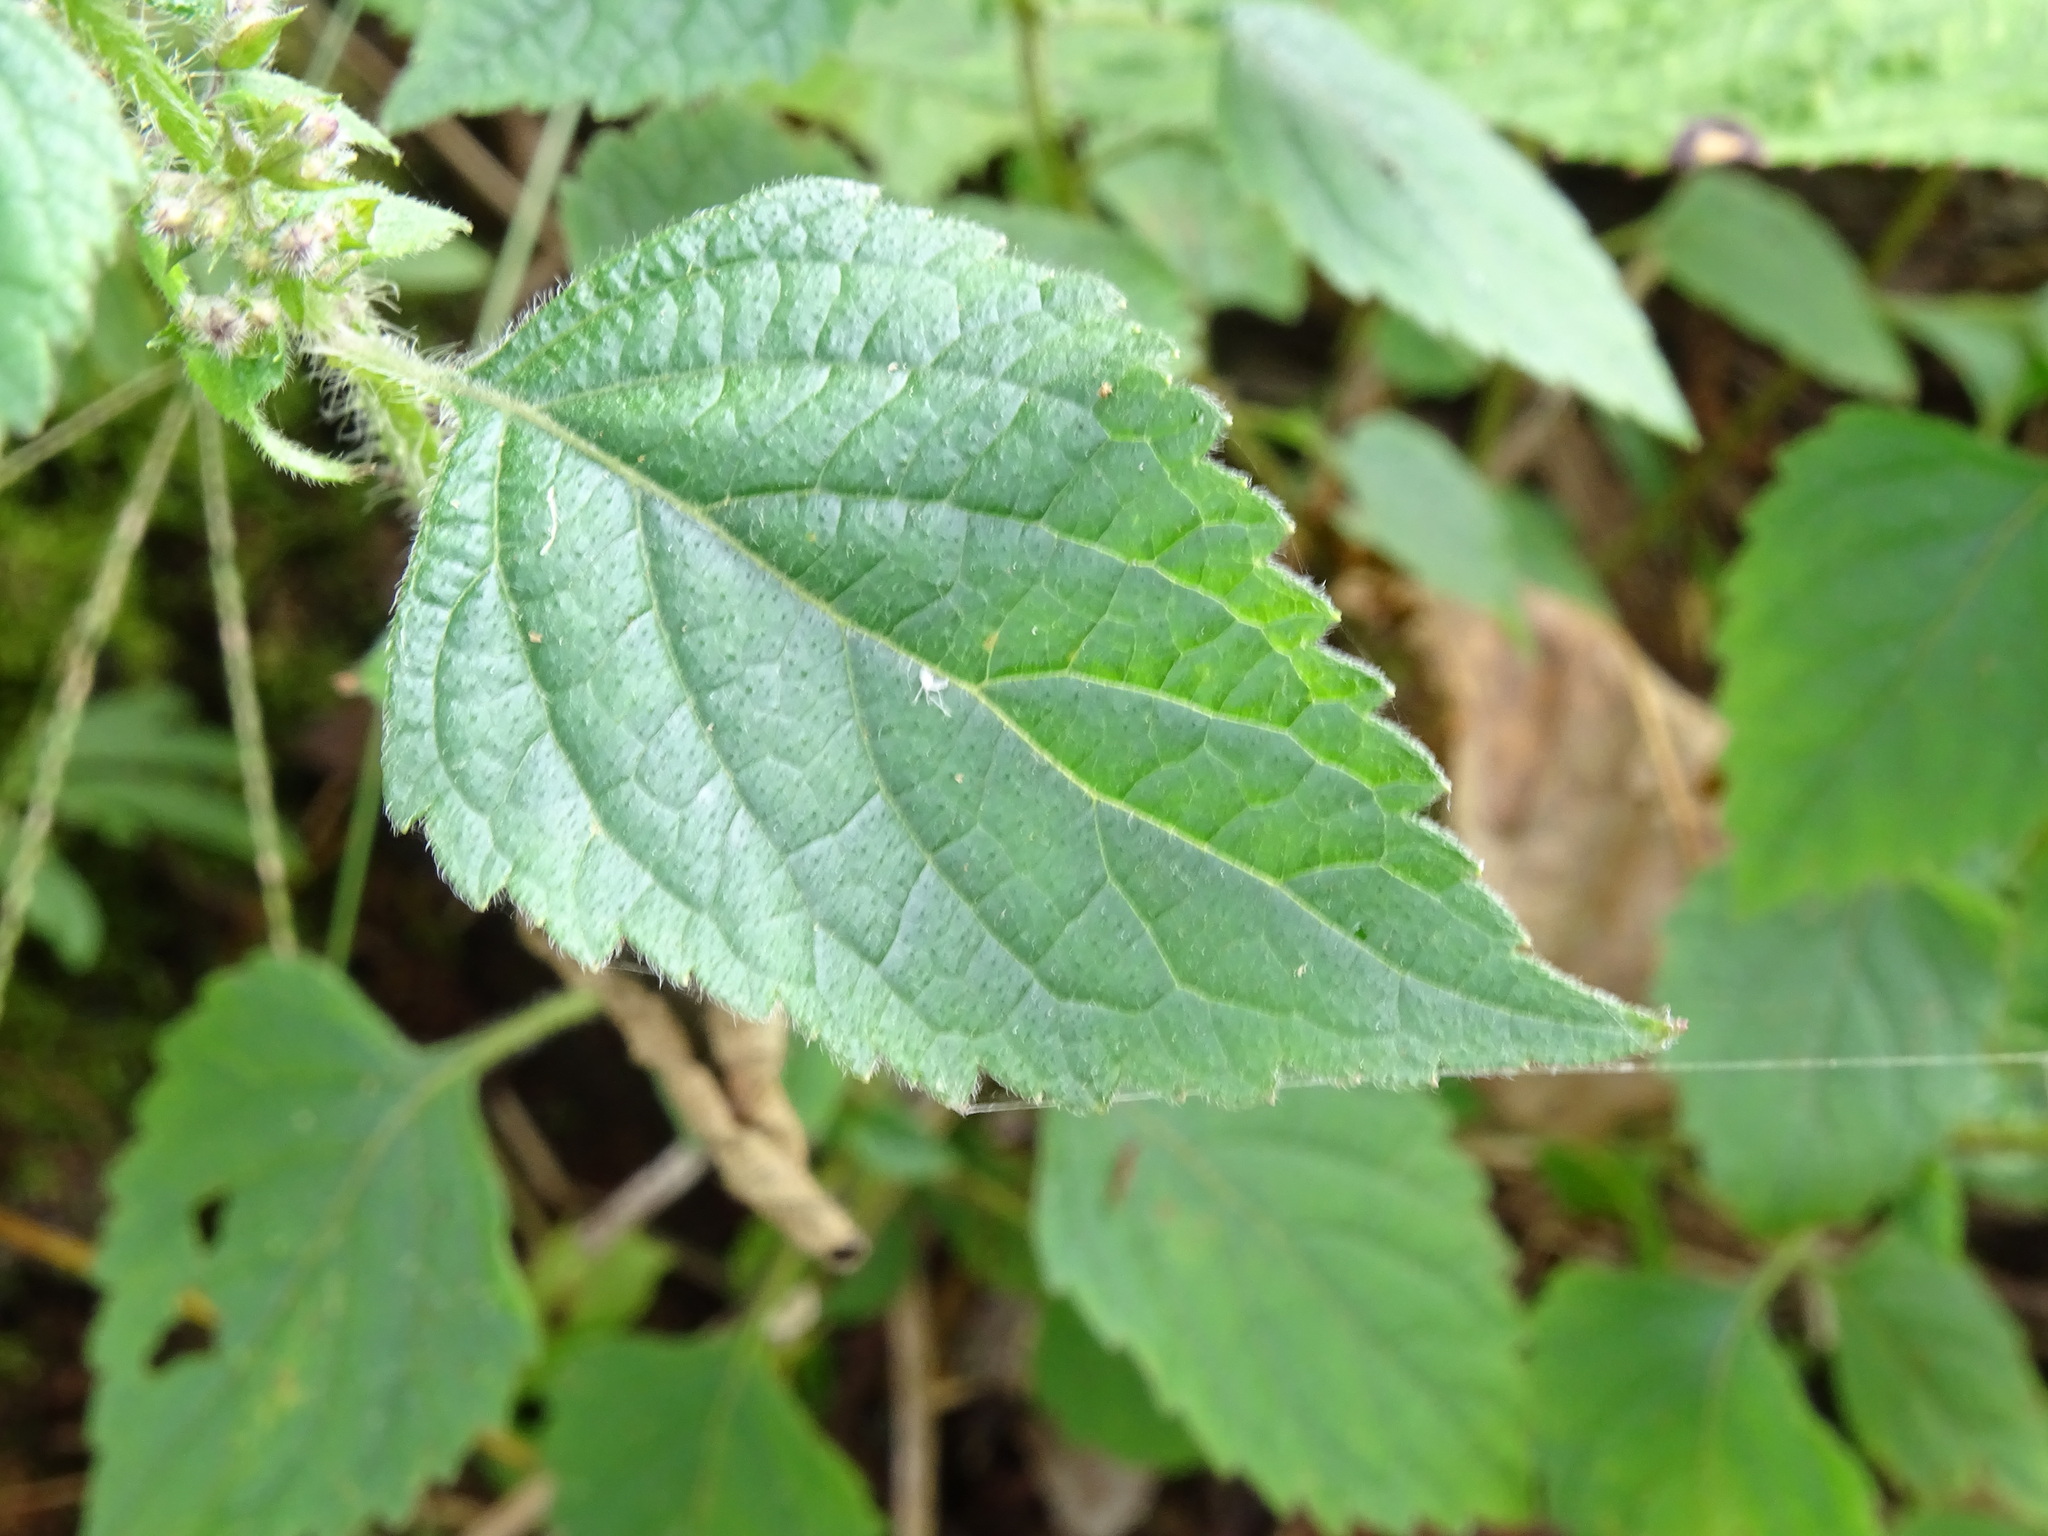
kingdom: Plantae
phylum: Tracheophyta
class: Magnoliopsida
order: Lamiales
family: Lamiaceae
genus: Cantinoa
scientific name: Cantinoa mutabilis
